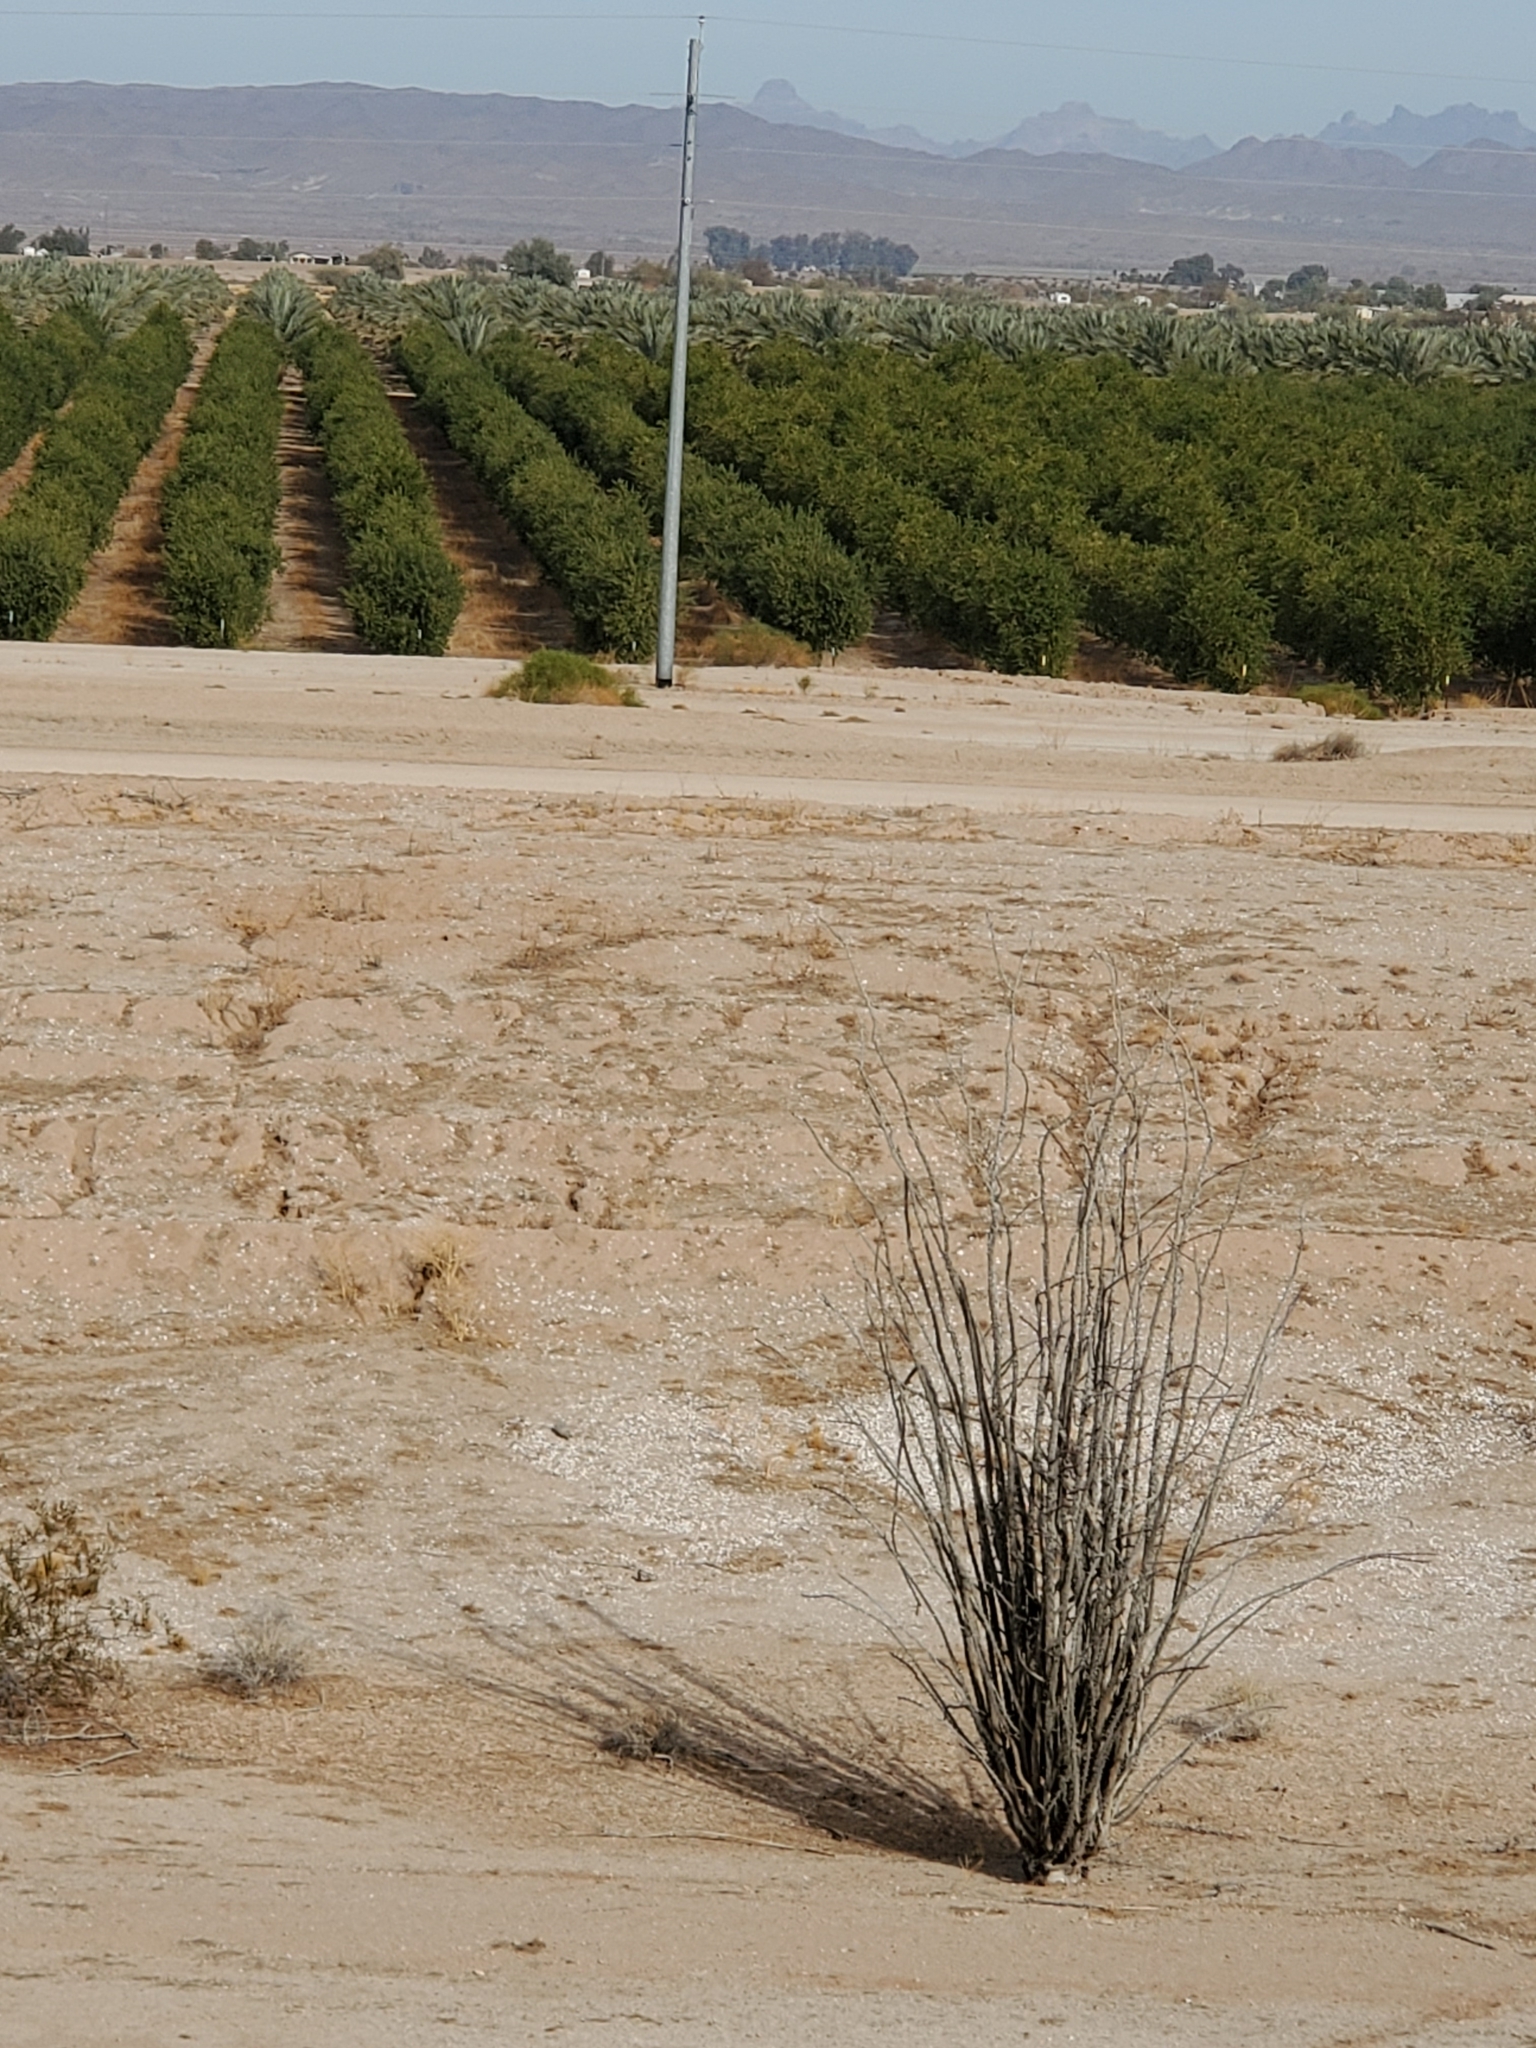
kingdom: Plantae
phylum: Tracheophyta
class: Magnoliopsida
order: Ericales
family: Fouquieriaceae
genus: Fouquieria
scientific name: Fouquieria splendens
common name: Vine-cactus
